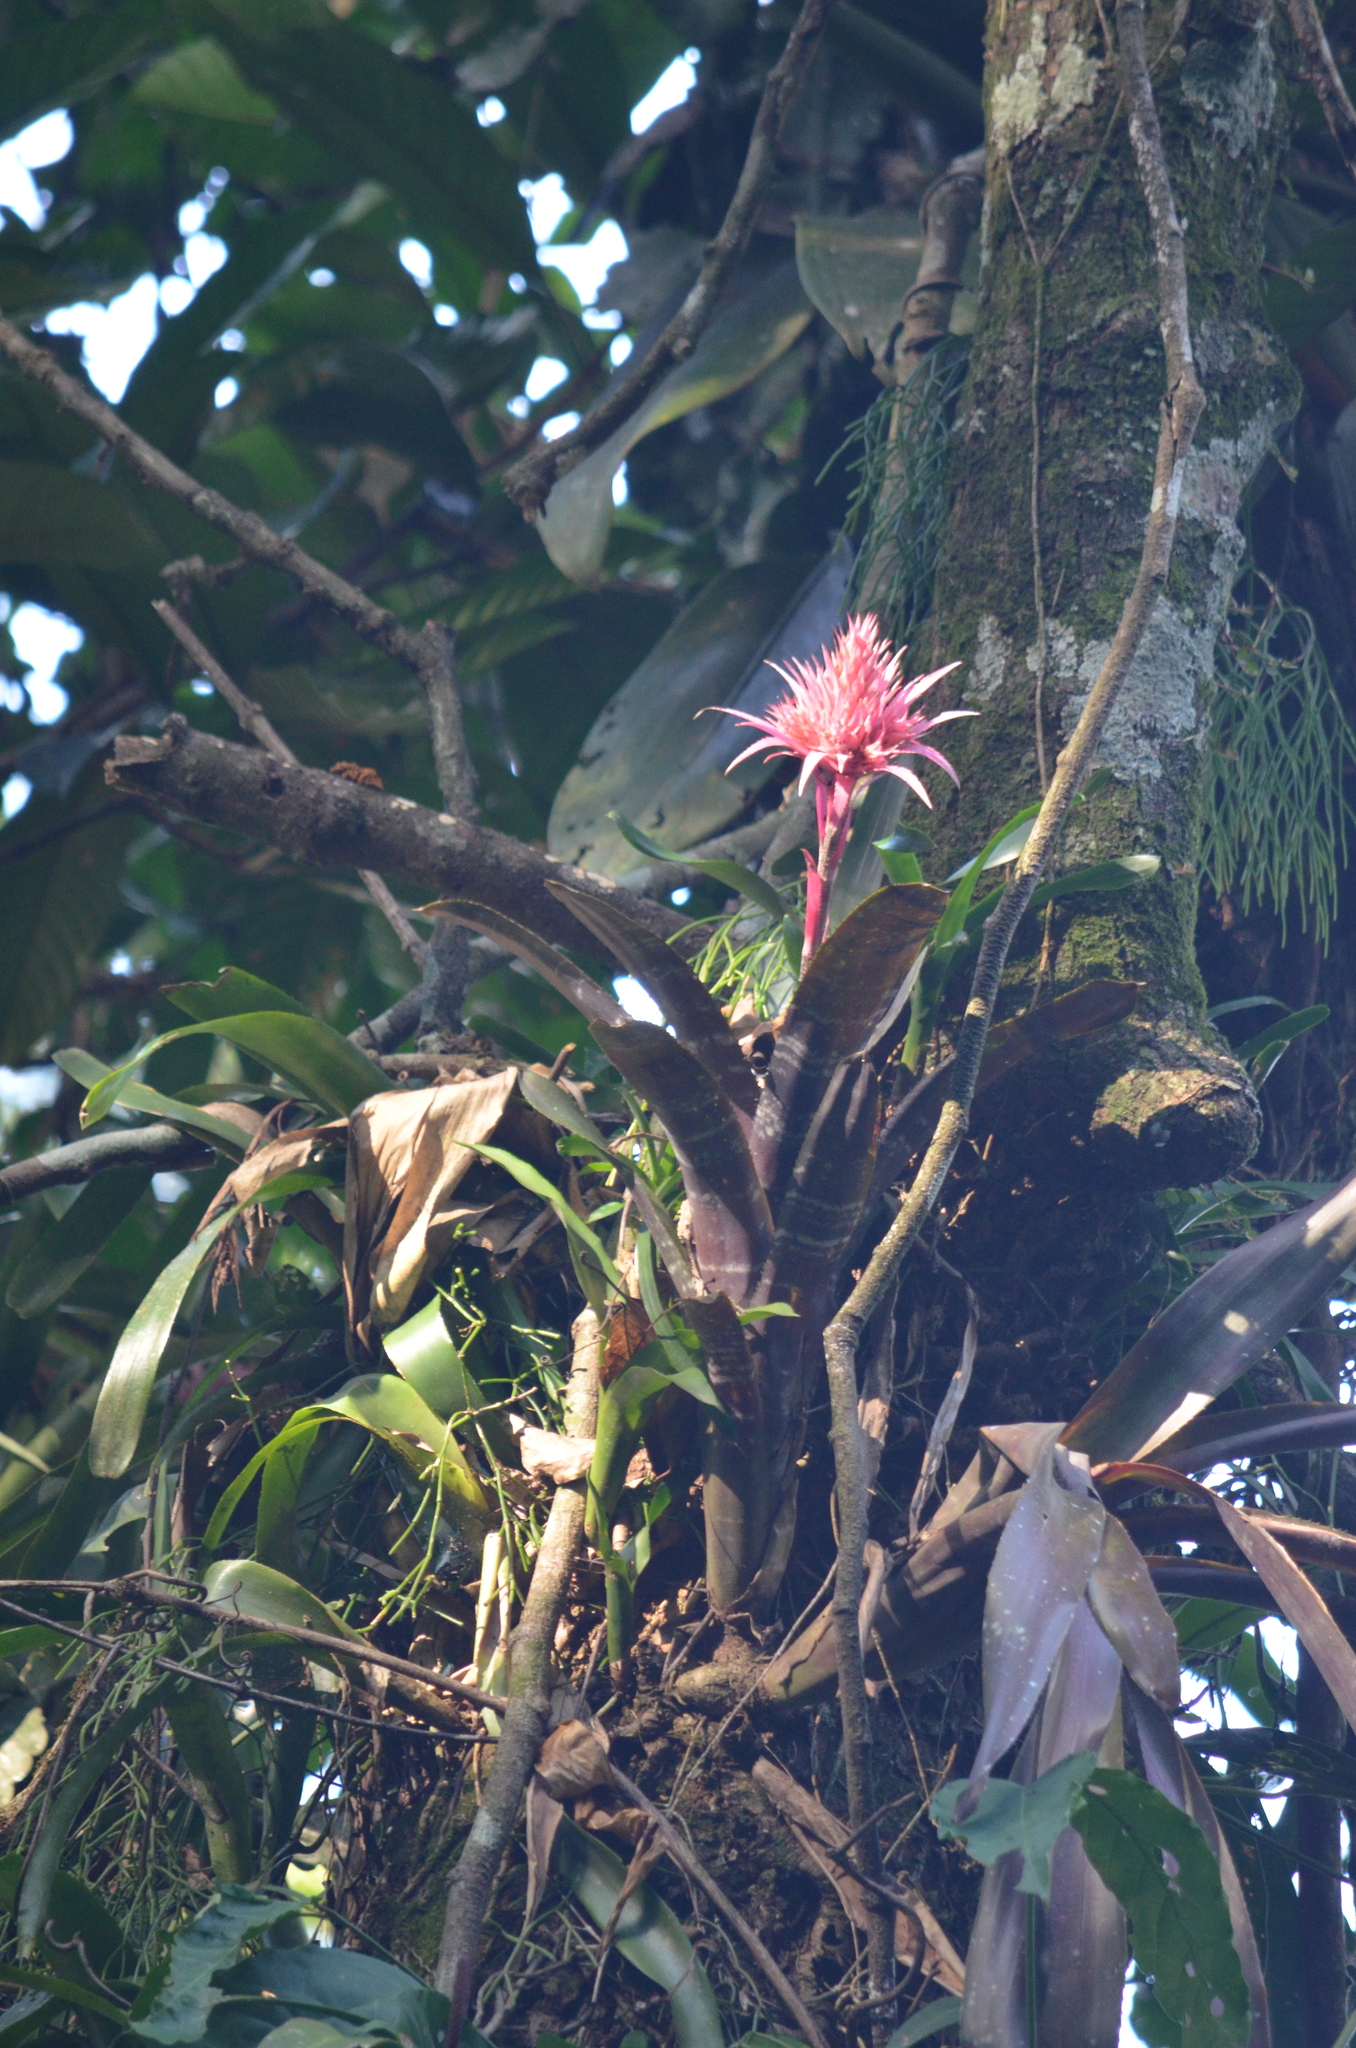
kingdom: Plantae
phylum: Tracheophyta
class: Liliopsida
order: Poales
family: Bromeliaceae
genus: Aechmea
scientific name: Aechmea fasciata
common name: Urnplant
